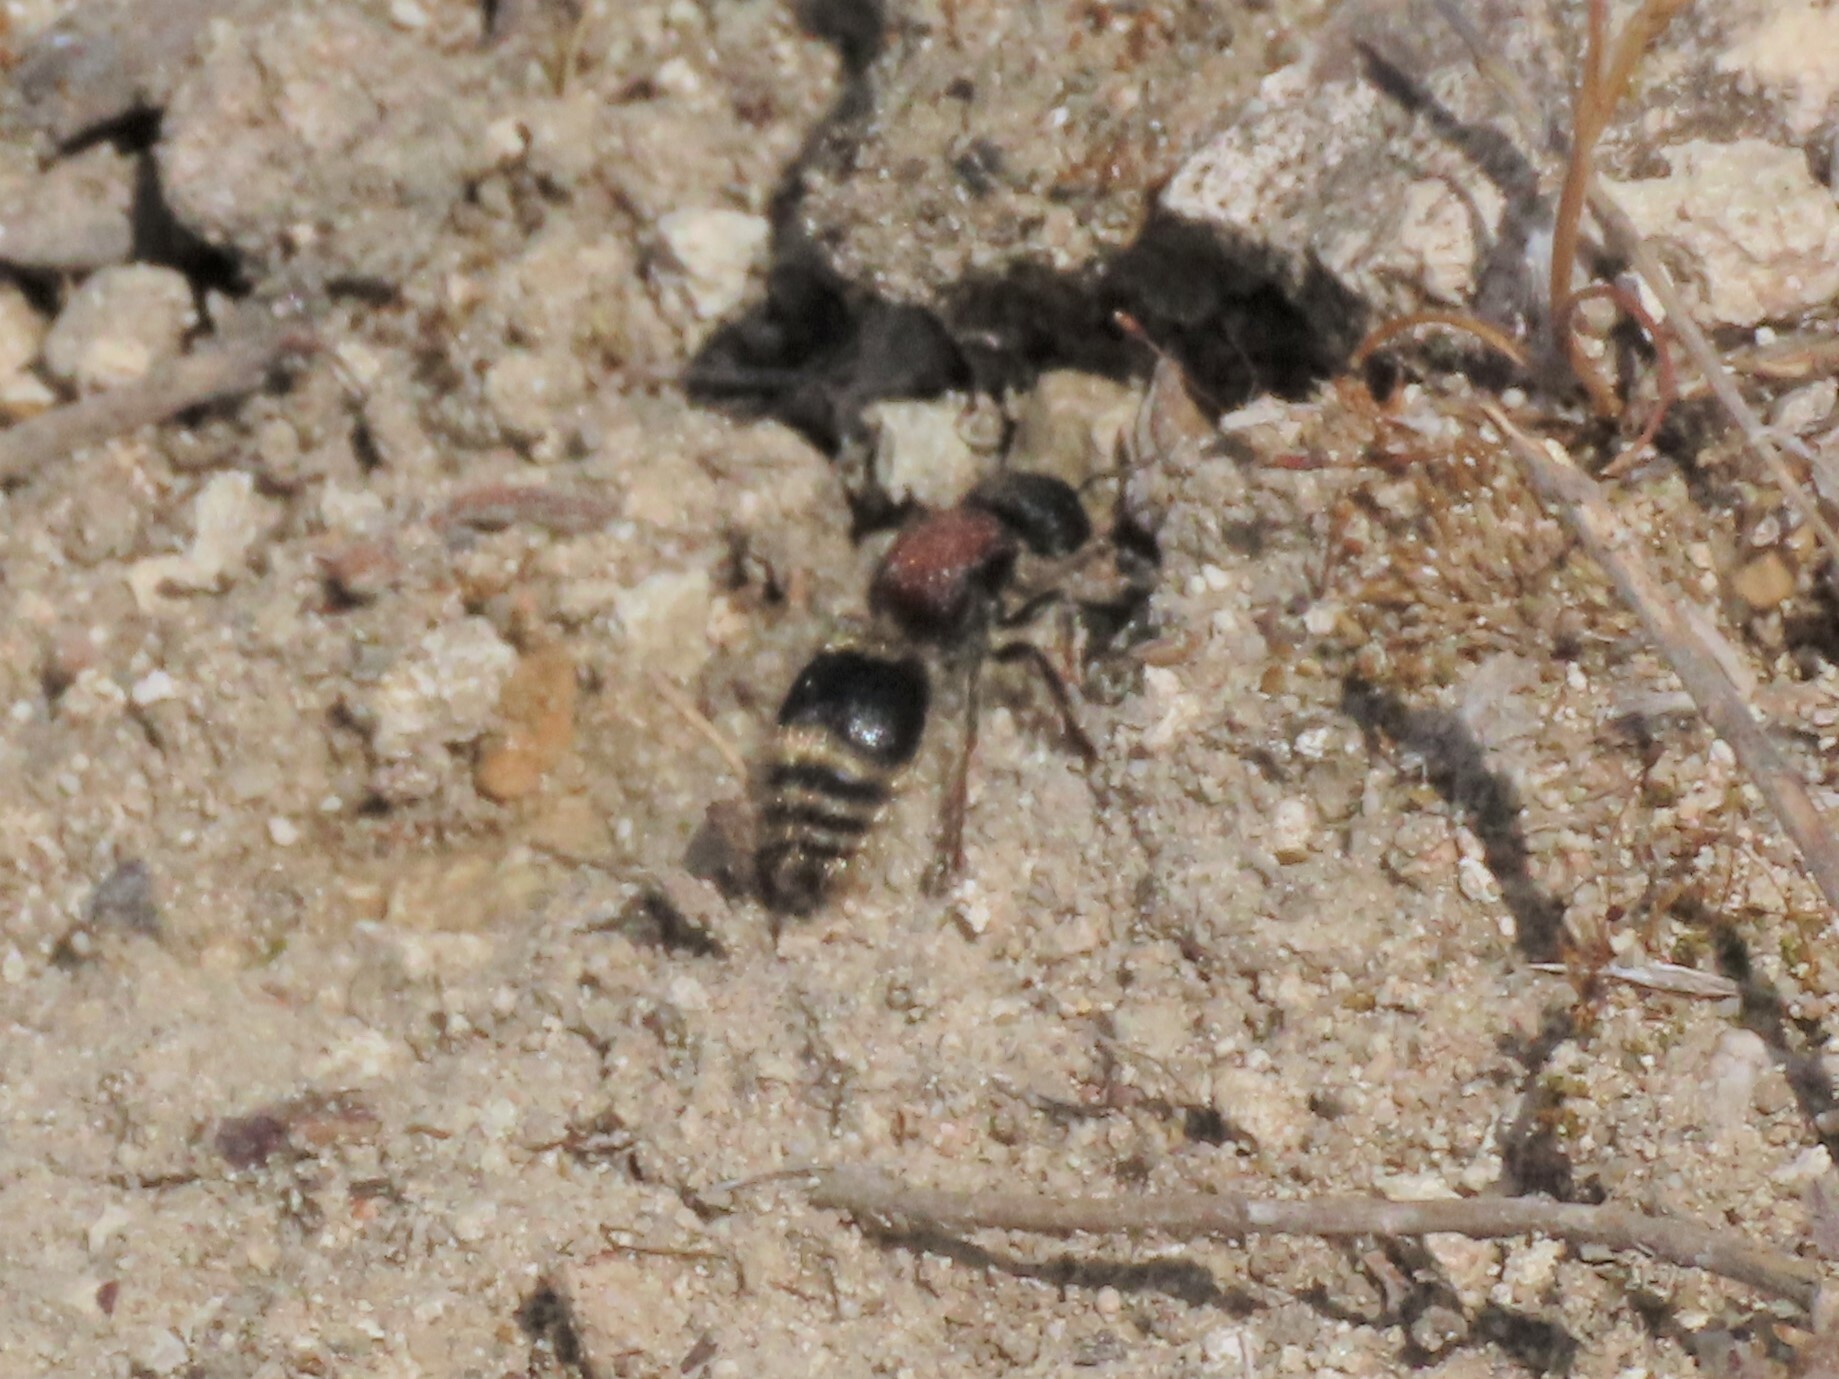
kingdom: Animalia
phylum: Arthropoda
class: Insecta
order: Hymenoptera
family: Mutillidae
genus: Tropidotilla
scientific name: Tropidotilla litoralis
